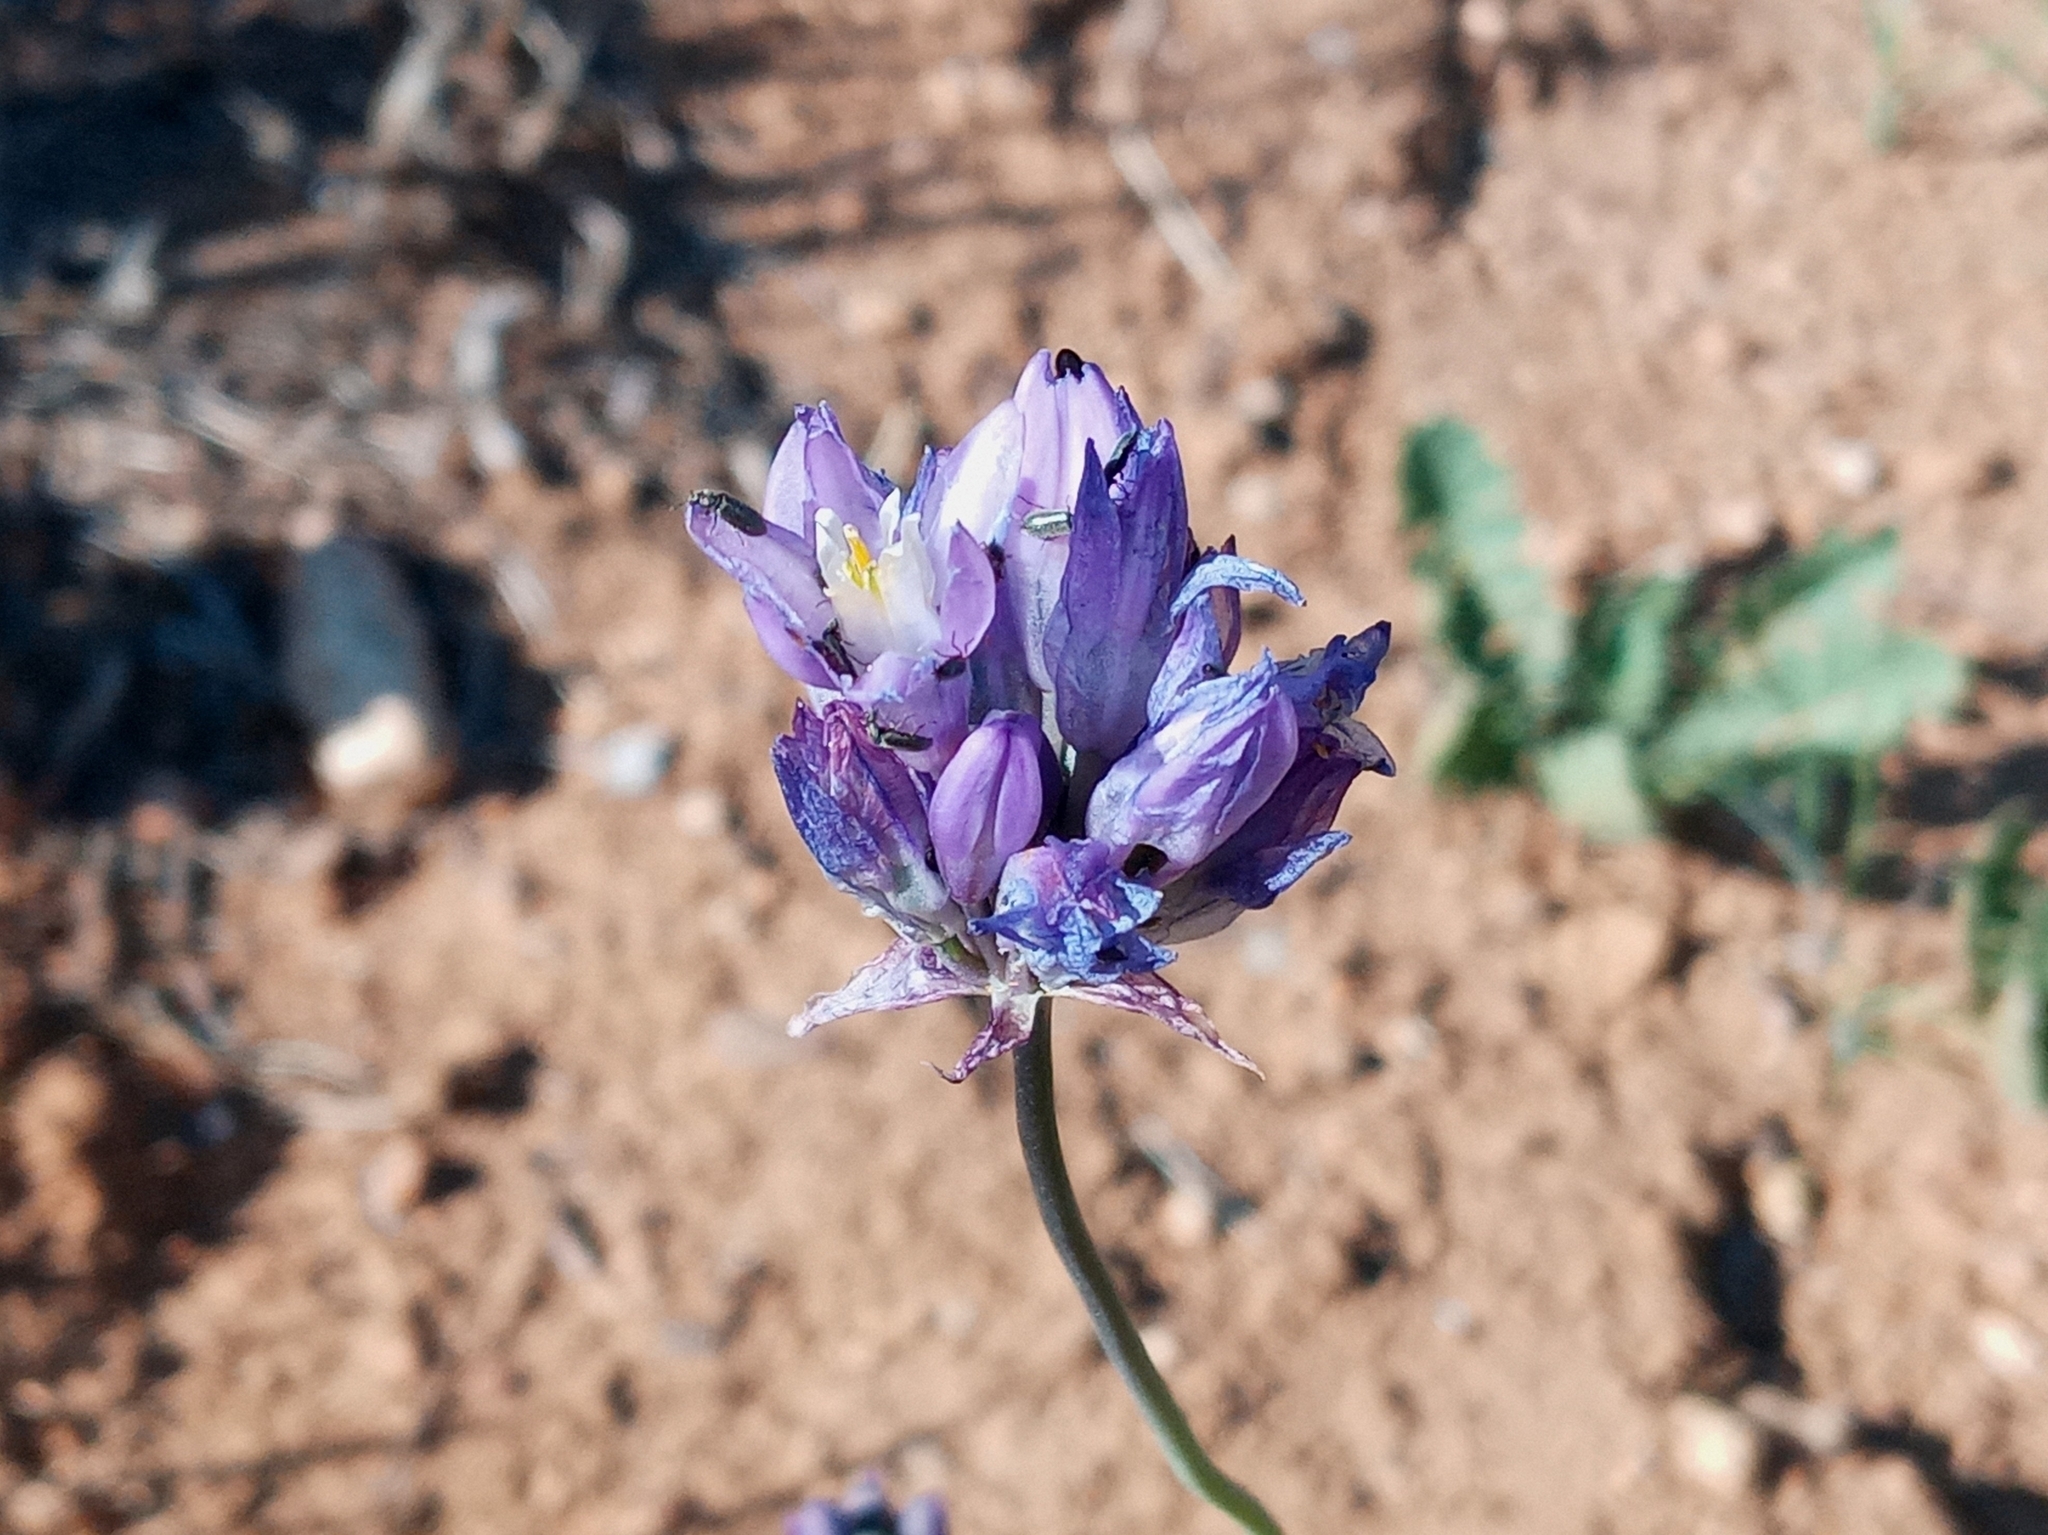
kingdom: Plantae
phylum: Tracheophyta
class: Liliopsida
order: Asparagales
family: Asparagaceae
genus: Dipterostemon
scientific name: Dipterostemon capitatus
